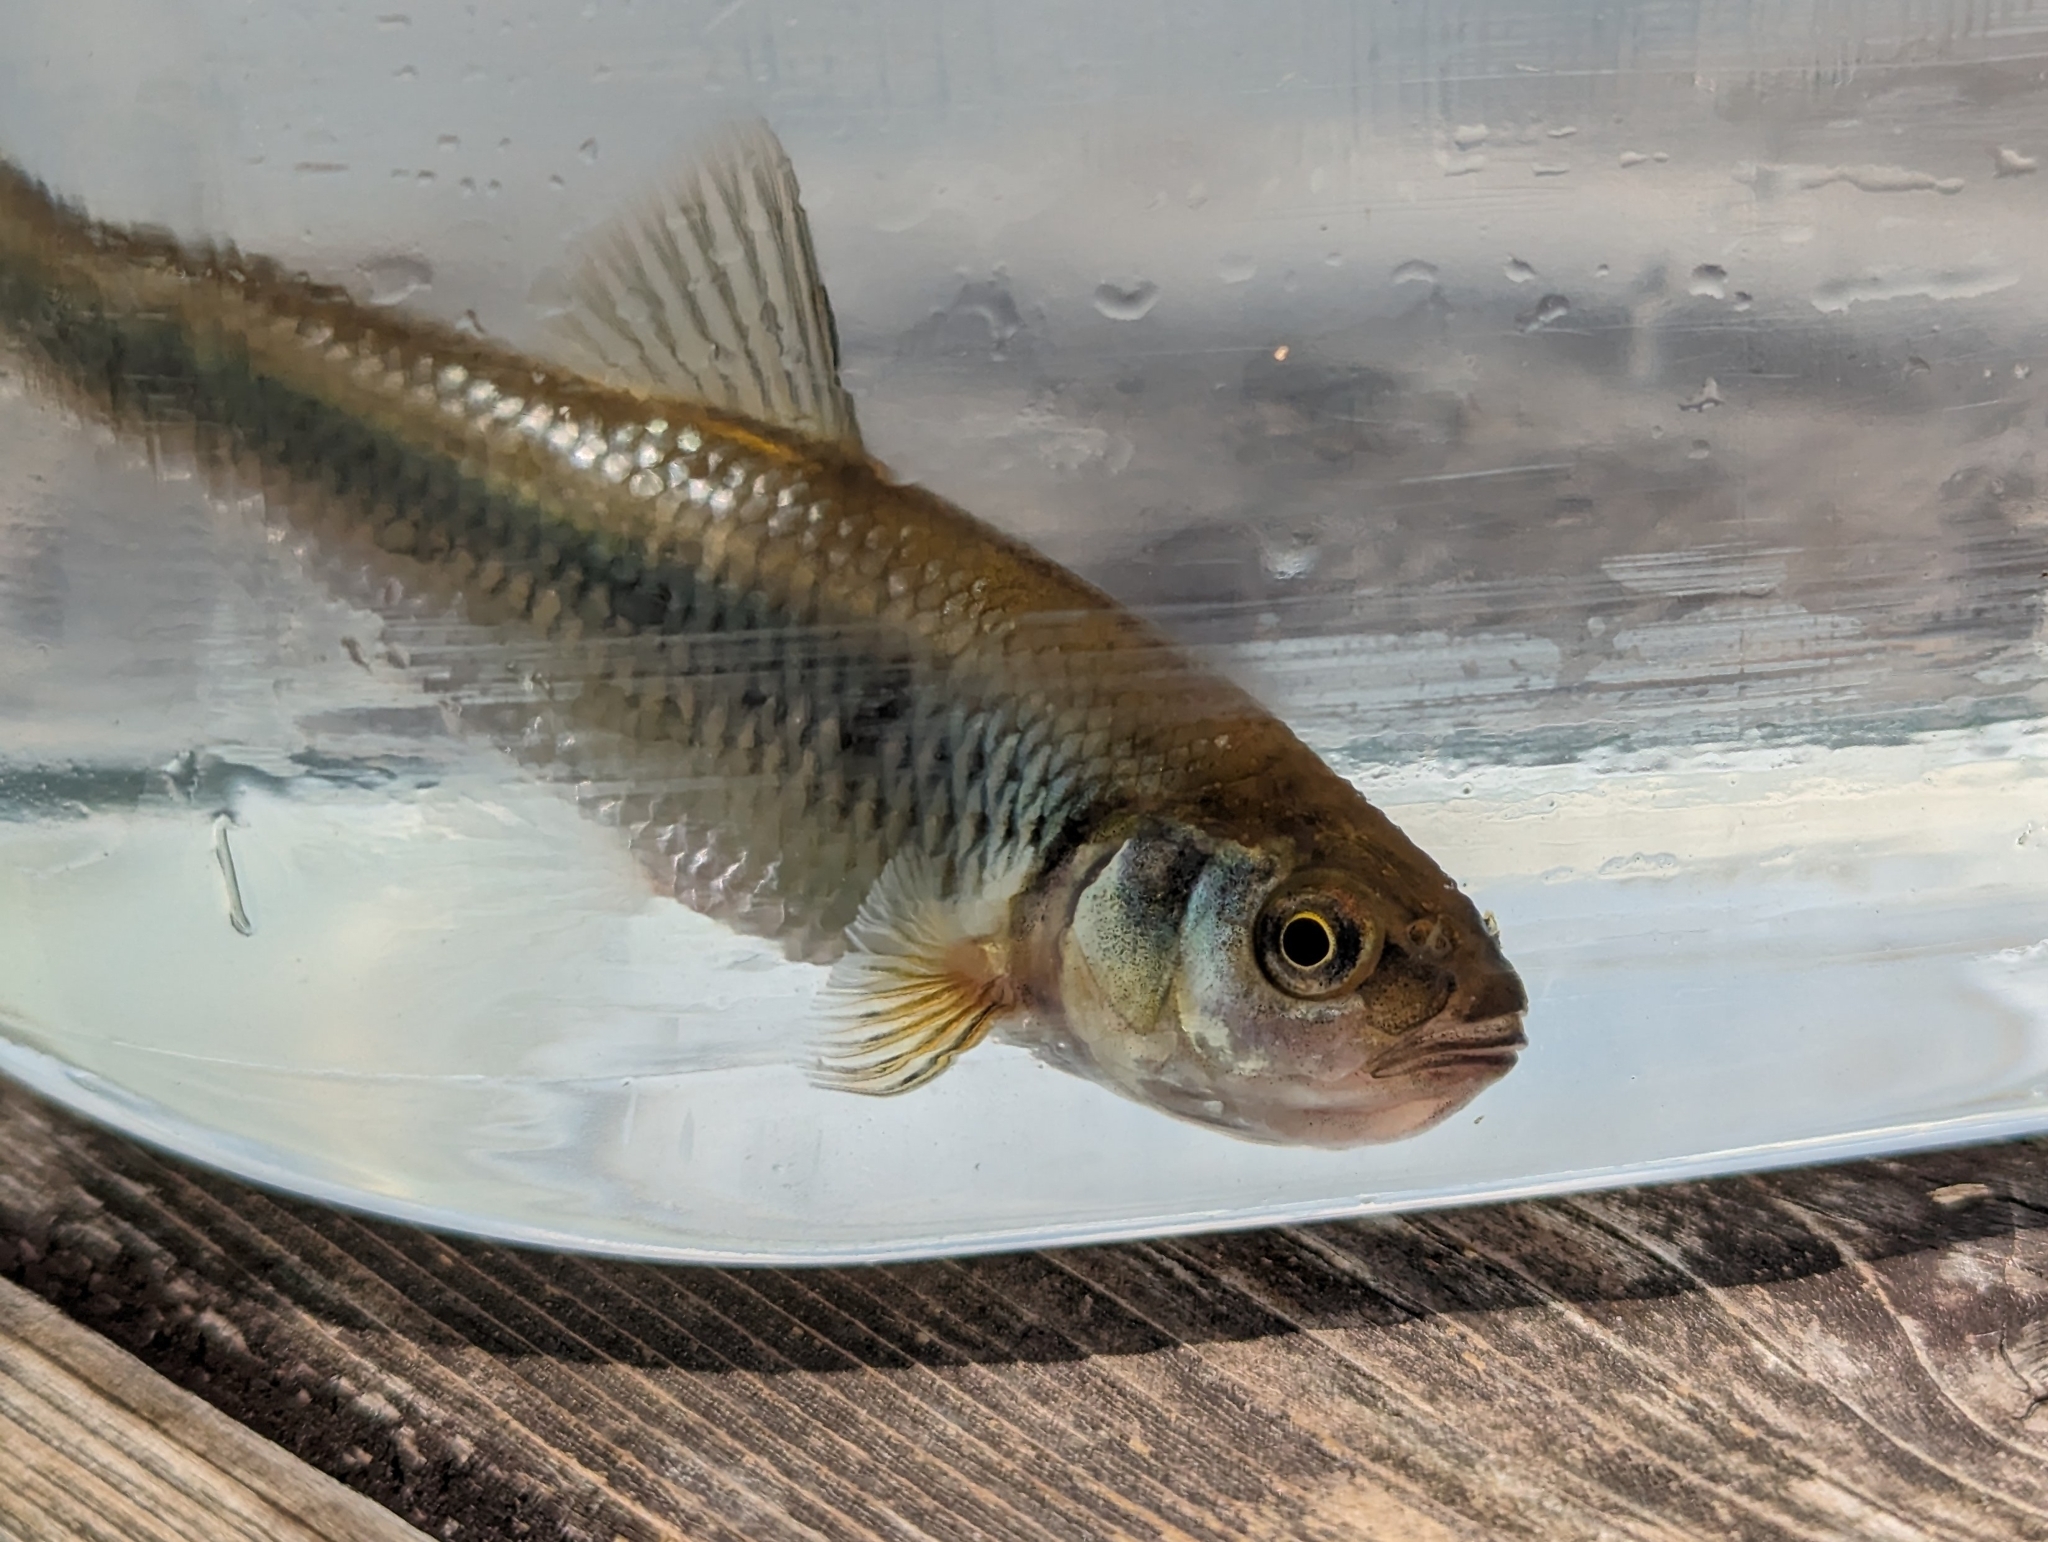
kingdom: Animalia
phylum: Chordata
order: Cypriniformes
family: Cyprinidae
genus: Luxilus
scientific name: Luxilus cornutus
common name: Common shiner
